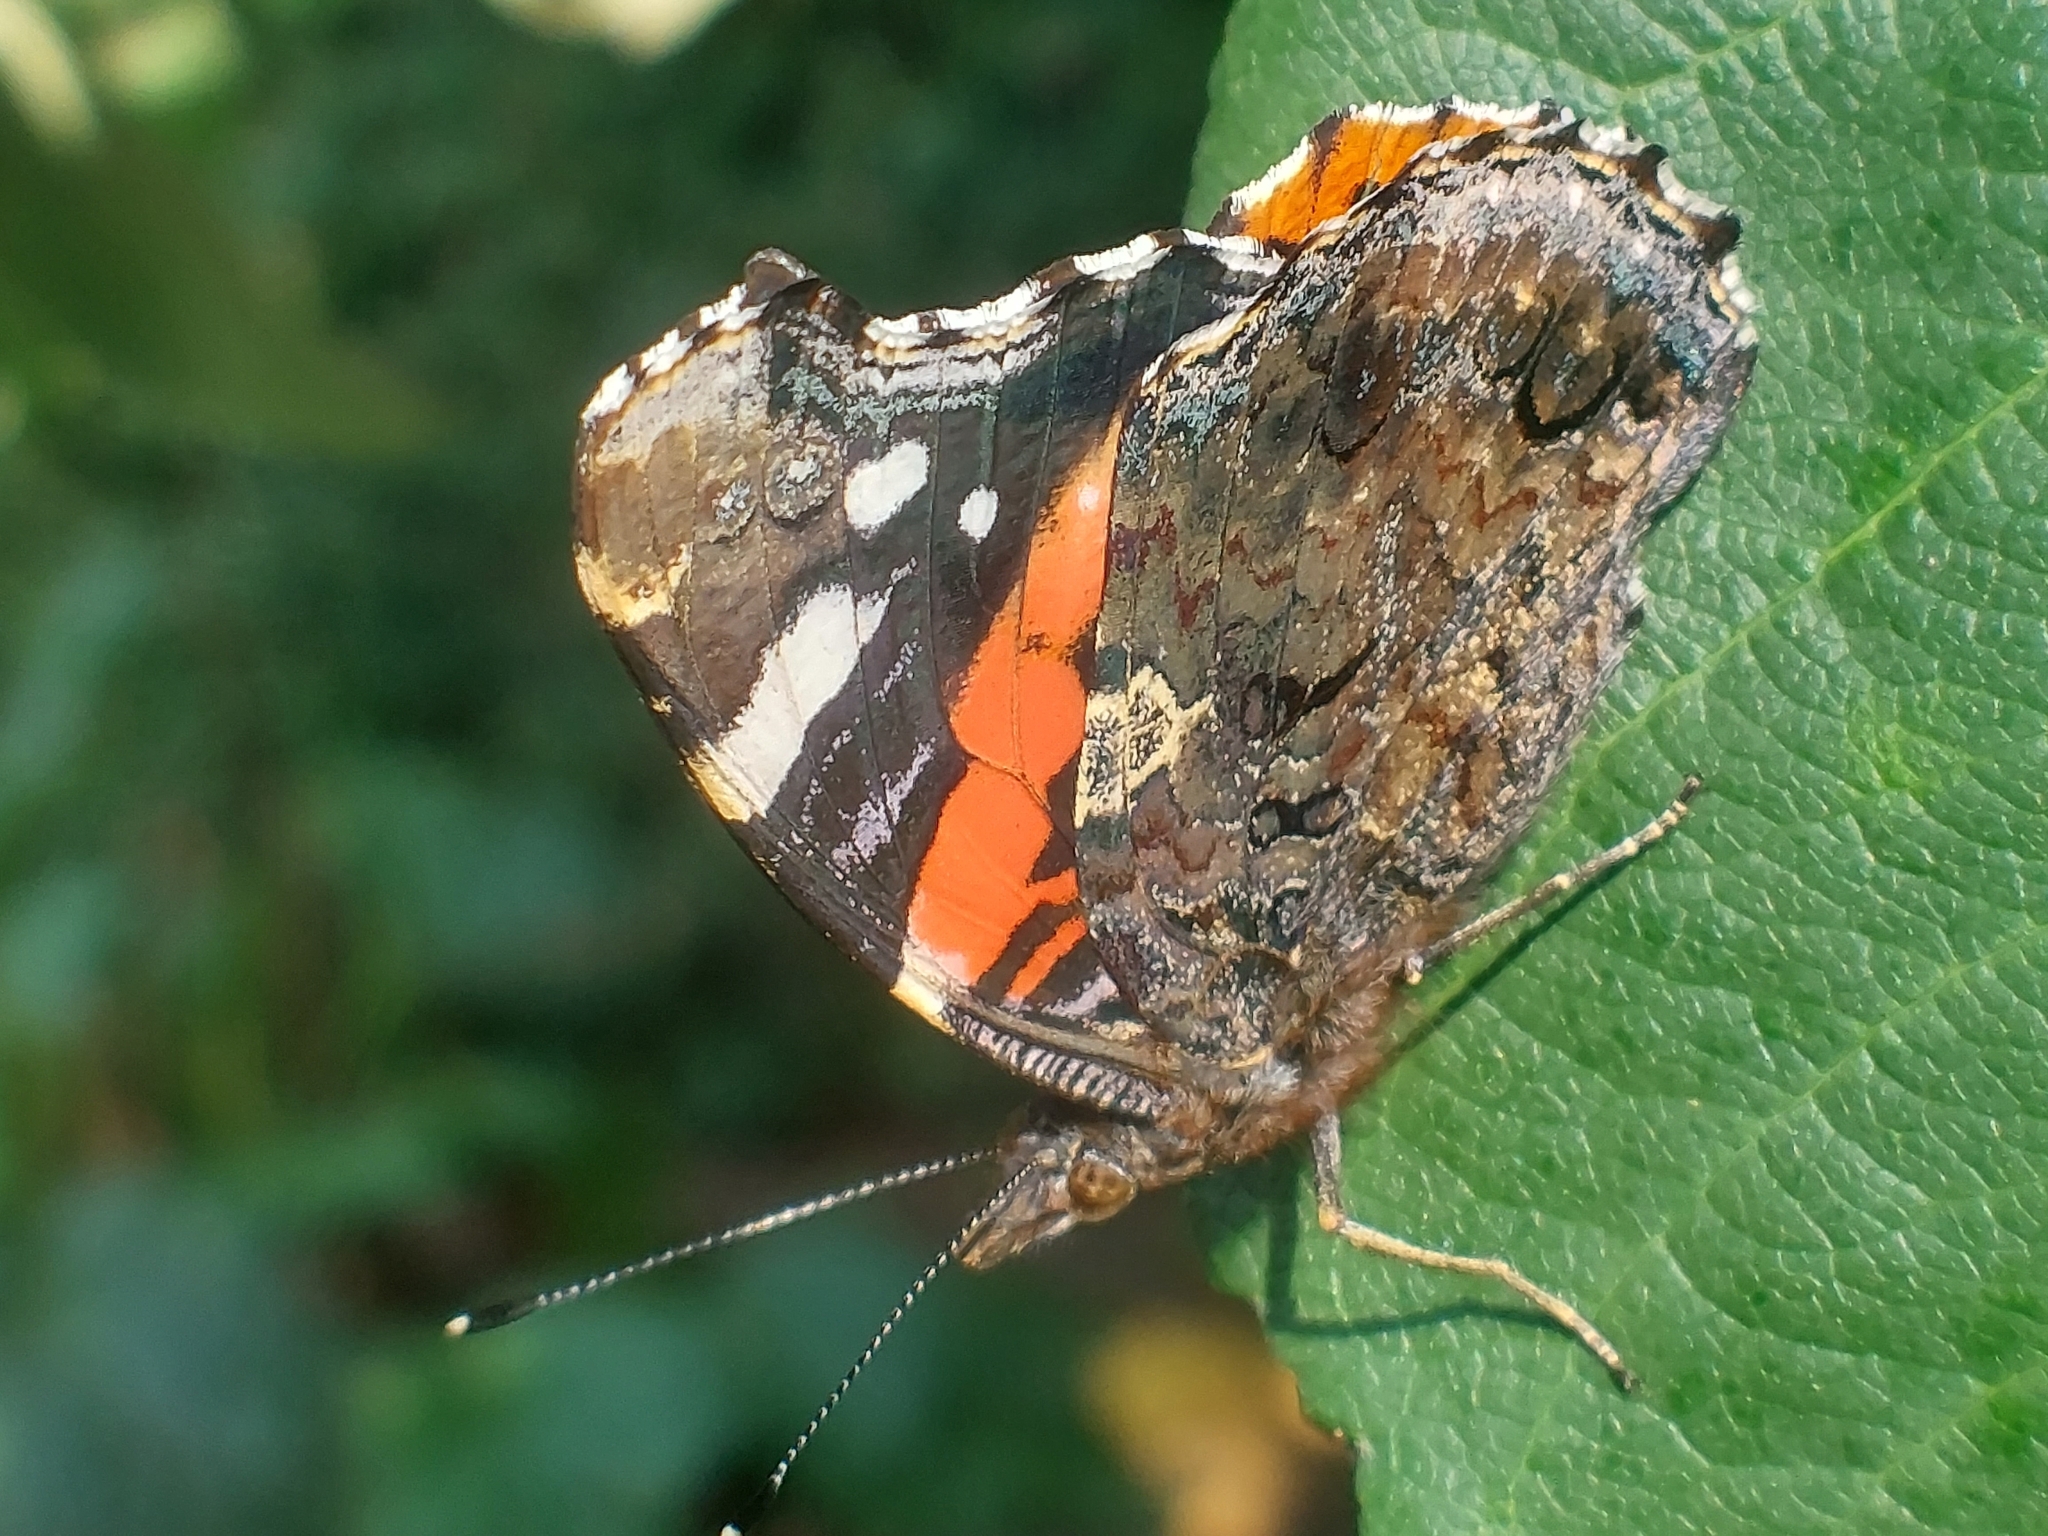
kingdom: Animalia
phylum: Arthropoda
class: Insecta
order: Lepidoptera
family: Nymphalidae
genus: Vanessa
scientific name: Vanessa atalanta
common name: Red admiral
